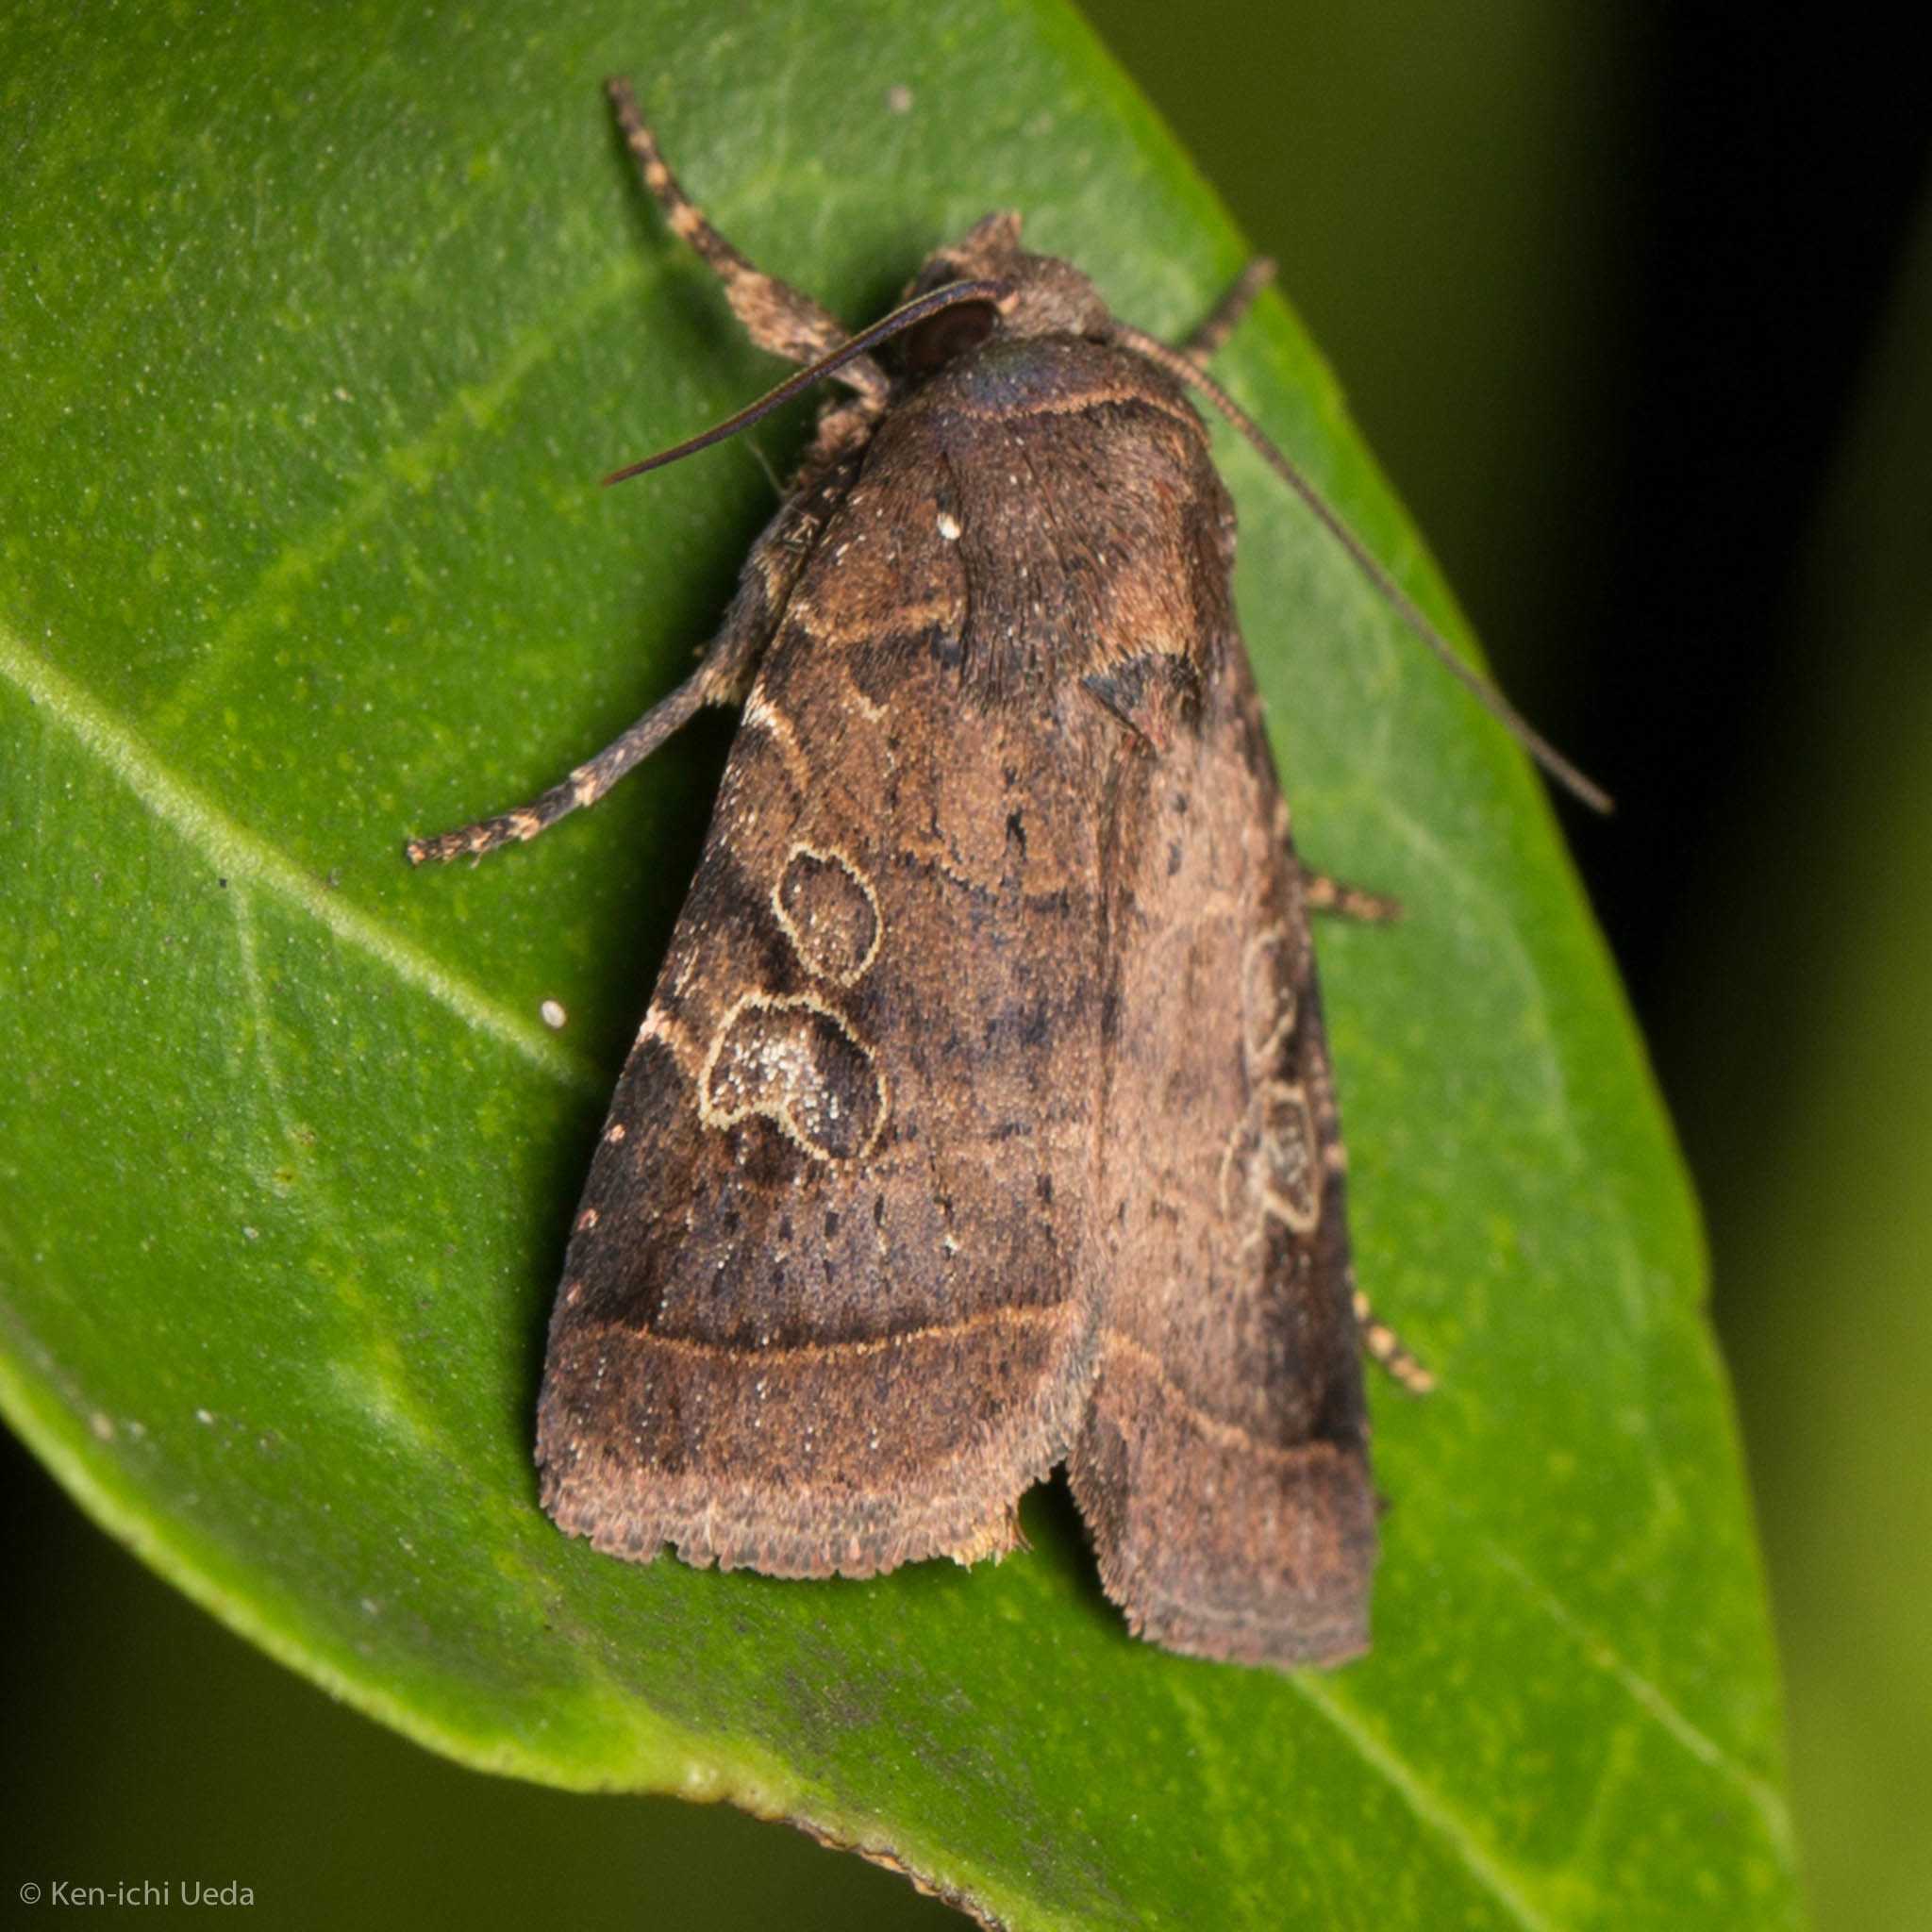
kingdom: Animalia
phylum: Arthropoda
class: Insecta
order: Lepidoptera
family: Noctuidae
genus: Orthodes
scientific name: Orthodes furtiva
